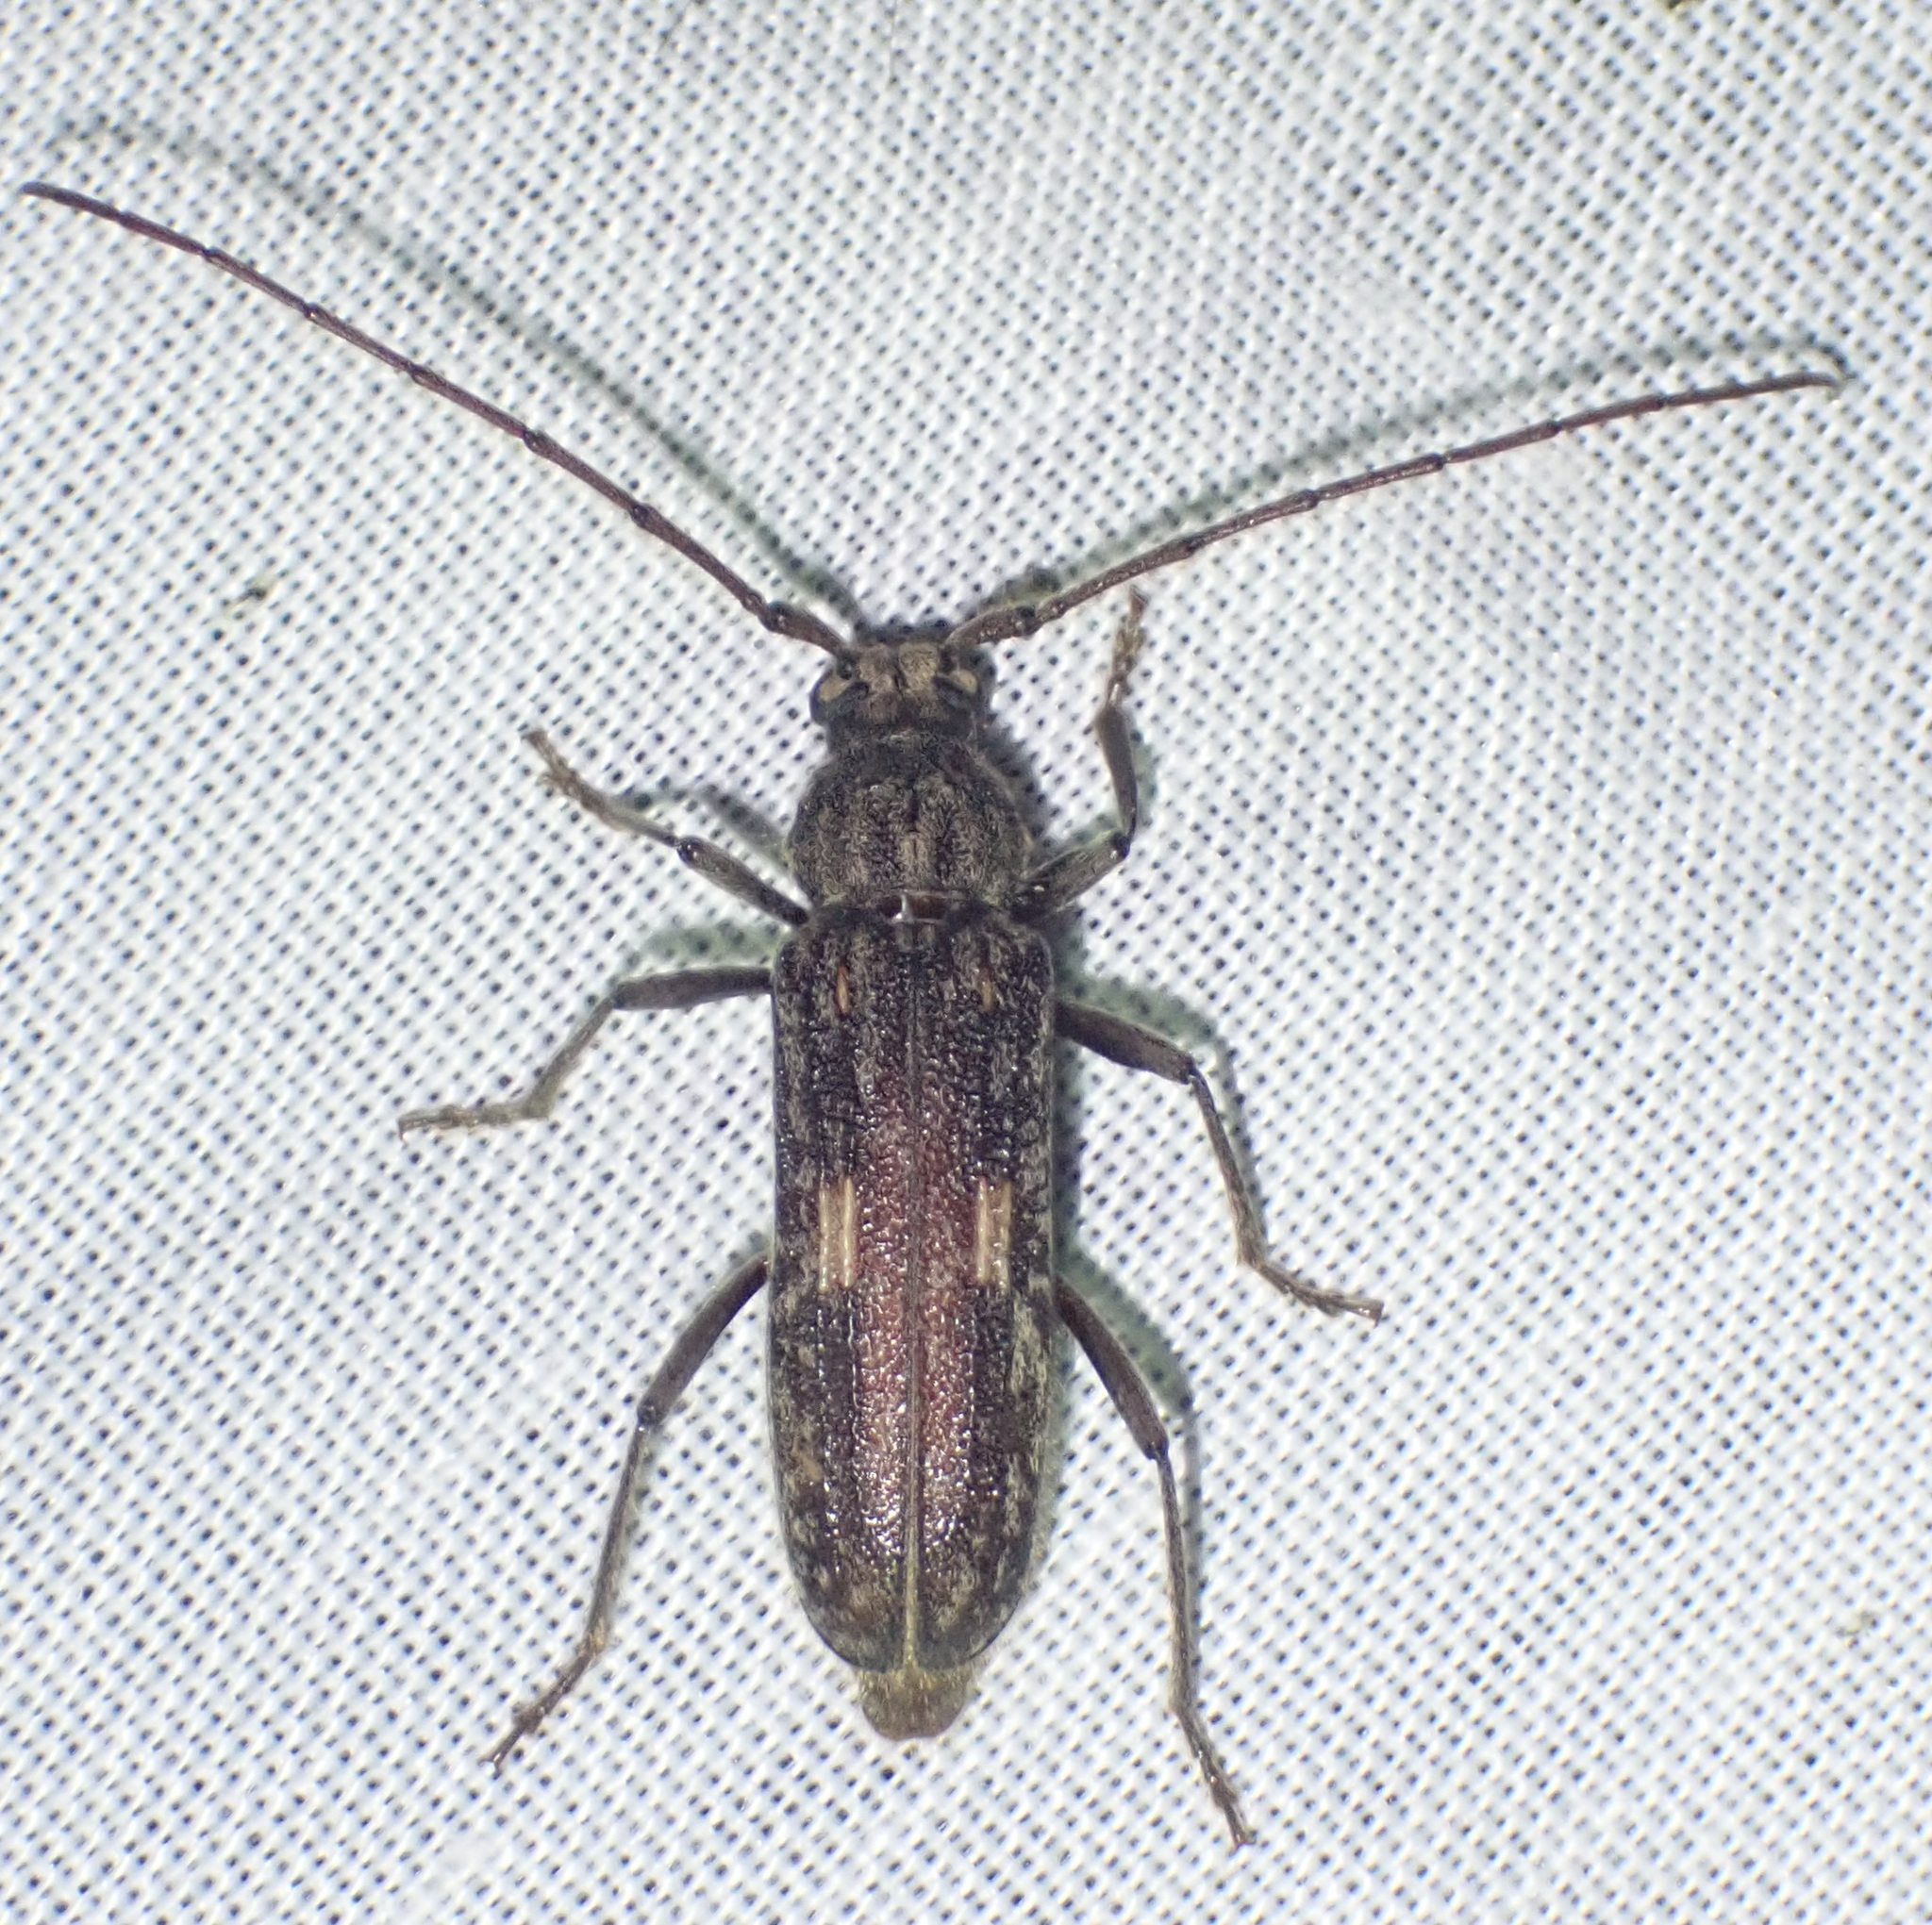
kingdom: Animalia
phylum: Arthropoda
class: Insecta
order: Coleoptera
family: Cerambycidae
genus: Zoodes
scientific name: Zoodes liturifer
